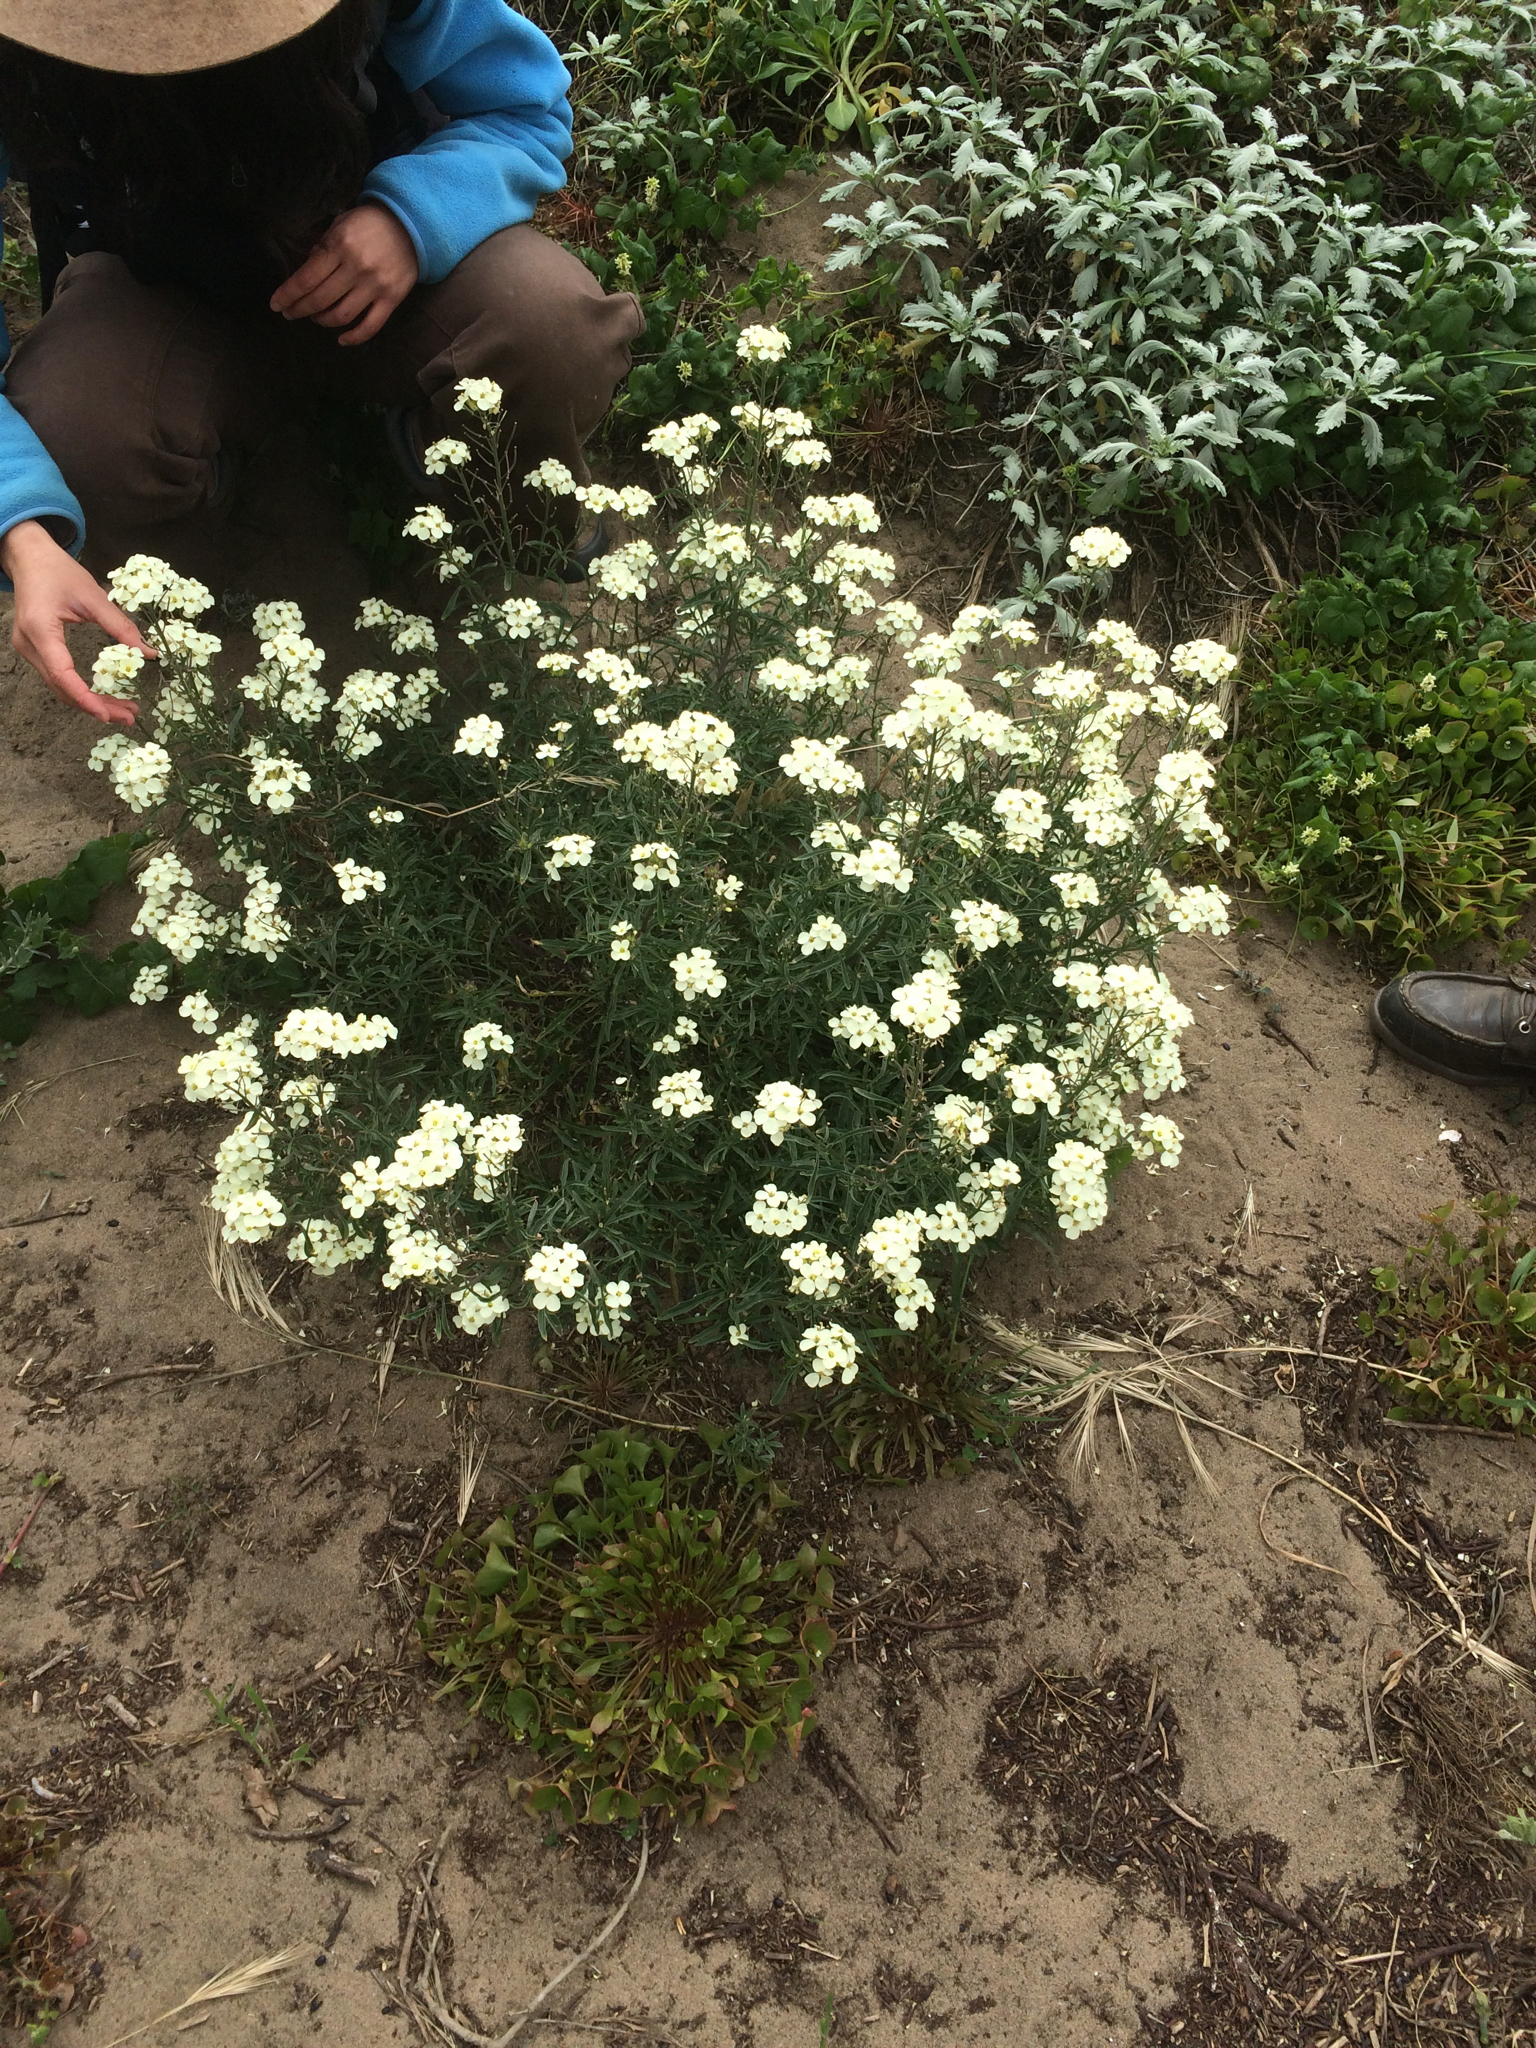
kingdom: Plantae
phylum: Tracheophyta
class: Magnoliopsida
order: Brassicales
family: Brassicaceae
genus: Erysimum
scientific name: Erysimum franciscanum
